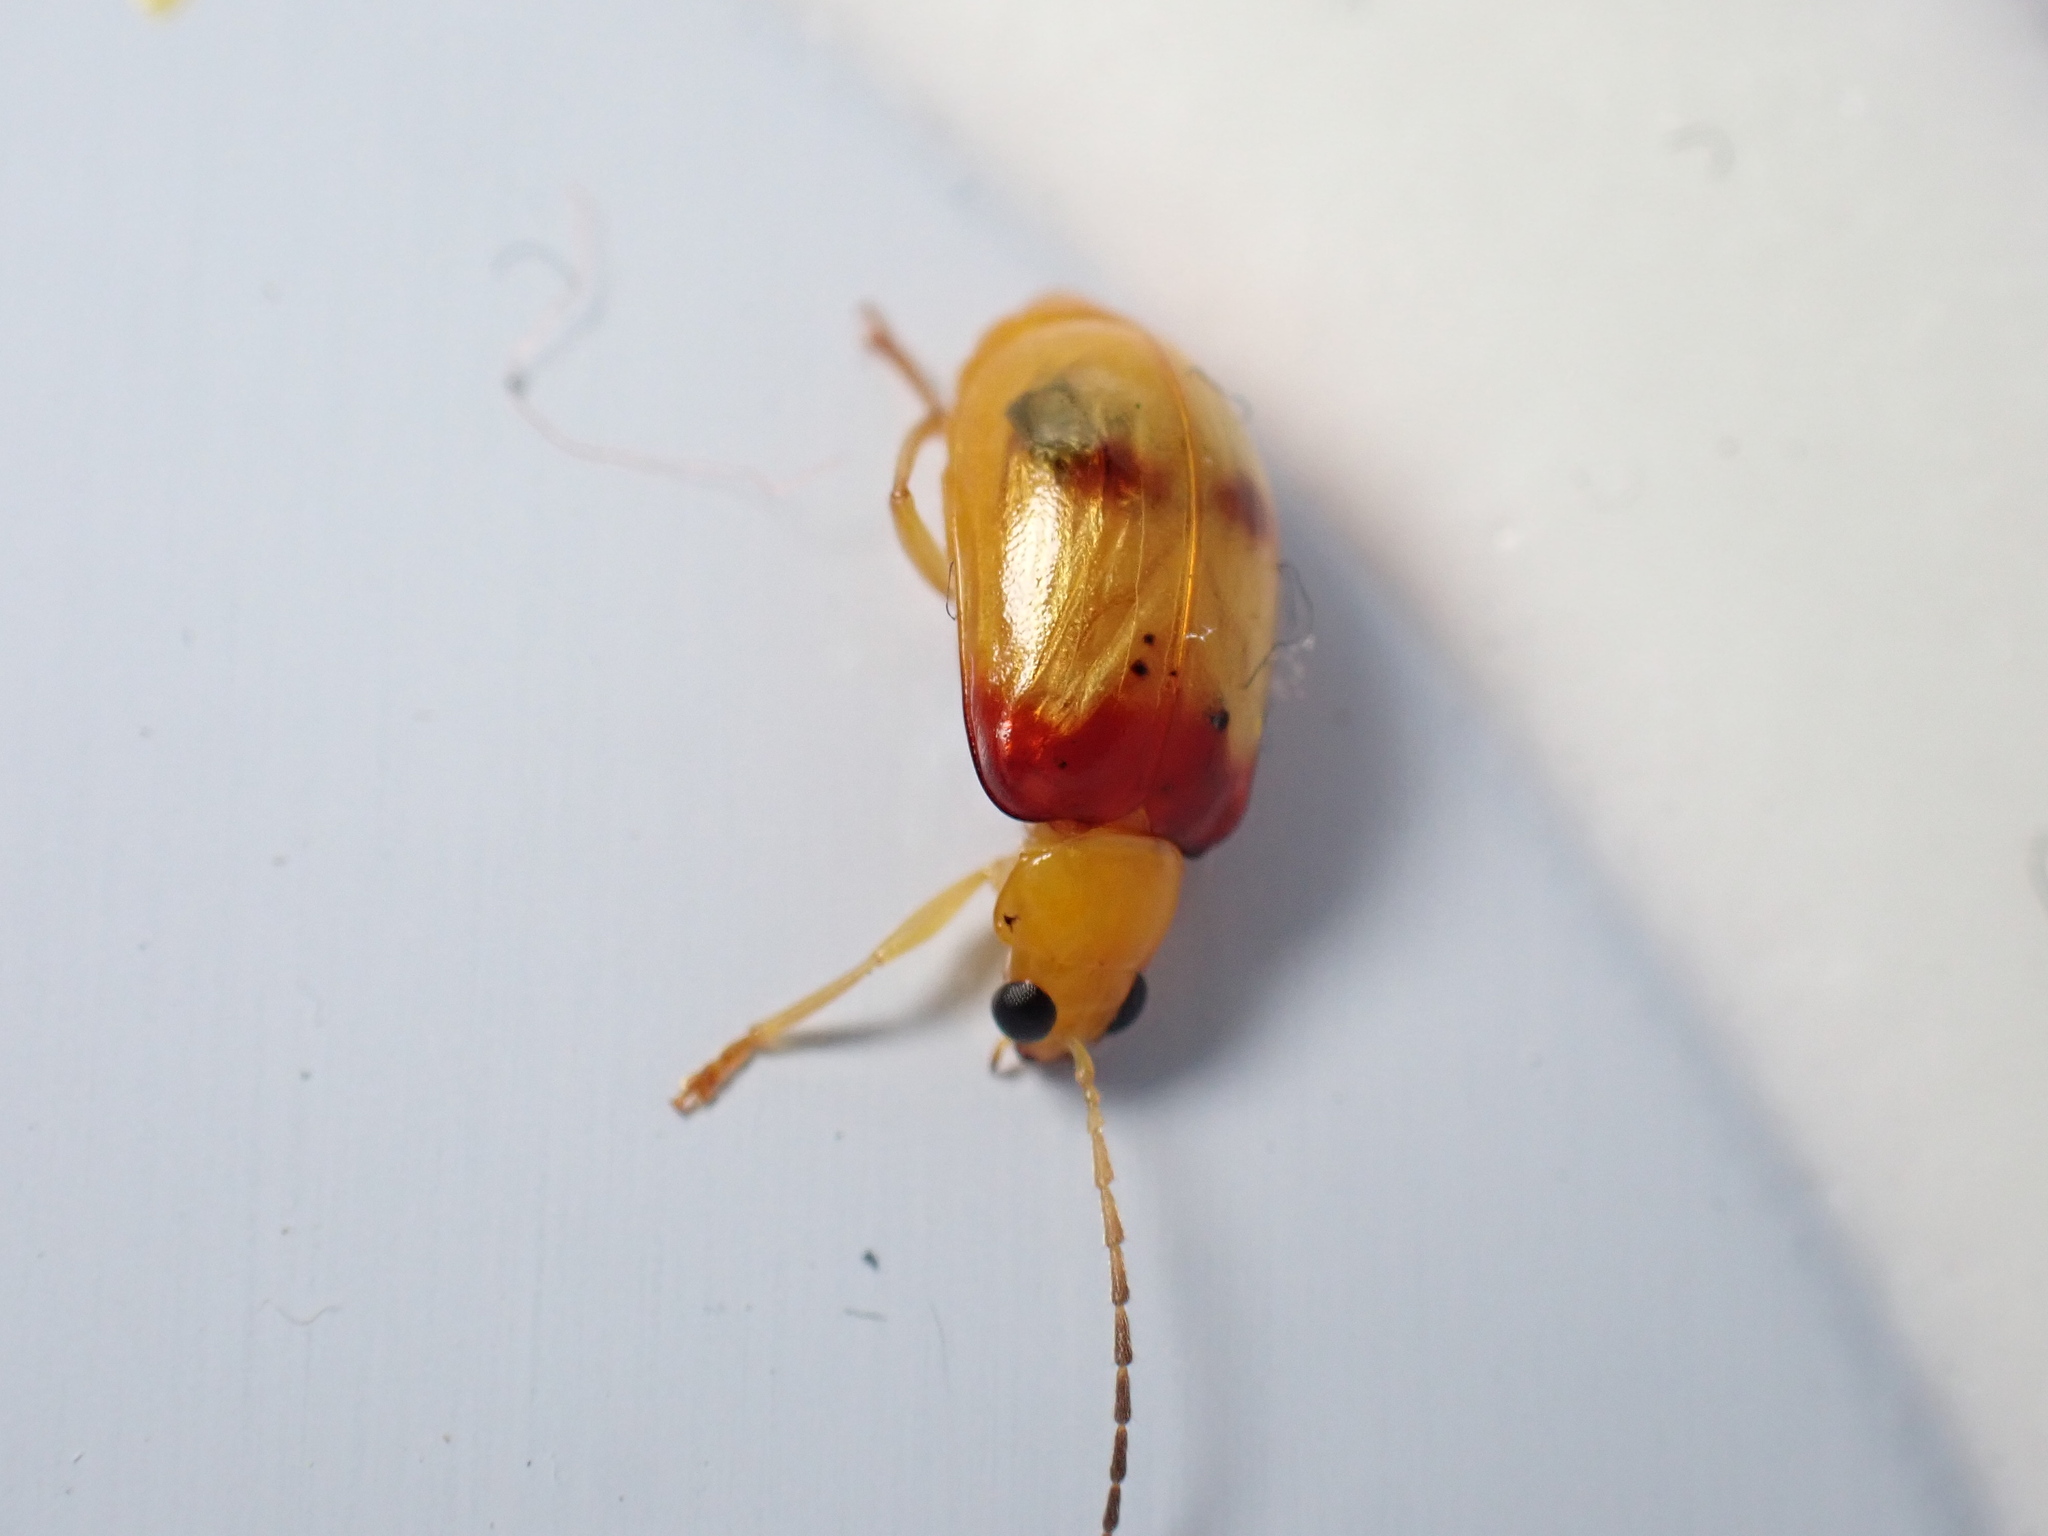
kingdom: Animalia
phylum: Arthropoda
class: Insecta
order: Coleoptera
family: Chrysomelidae
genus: Monolepta
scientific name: Monolepta
